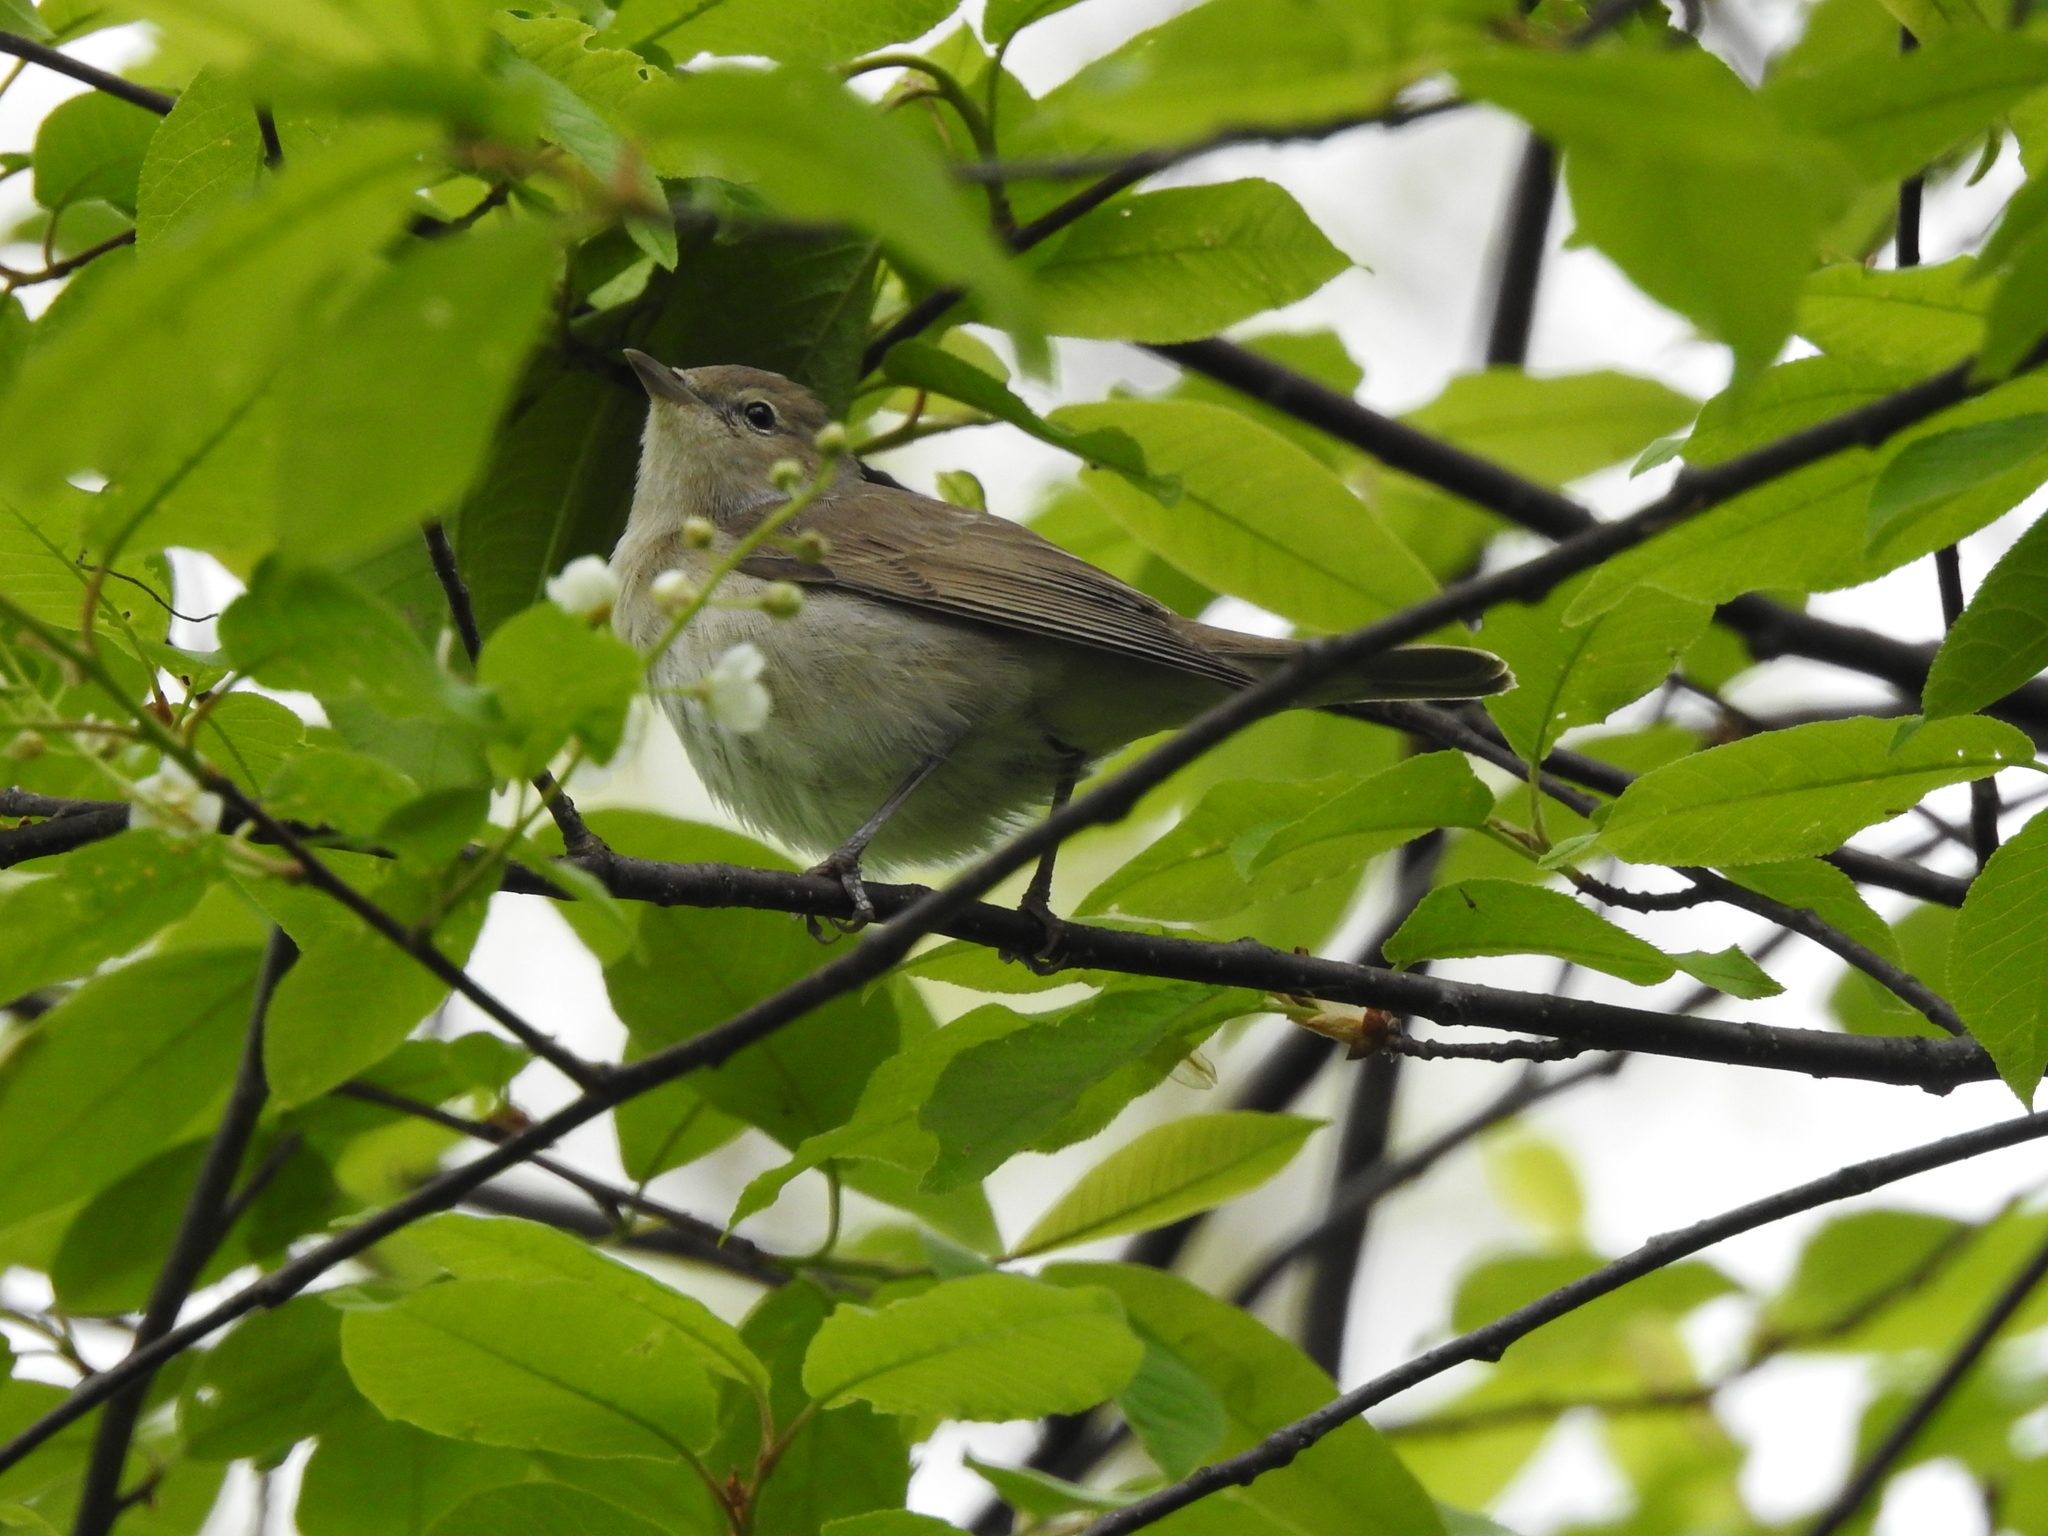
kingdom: Animalia
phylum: Chordata
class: Aves
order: Passeriformes
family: Sylviidae
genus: Sylvia
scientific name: Sylvia borin
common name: Garden warbler
